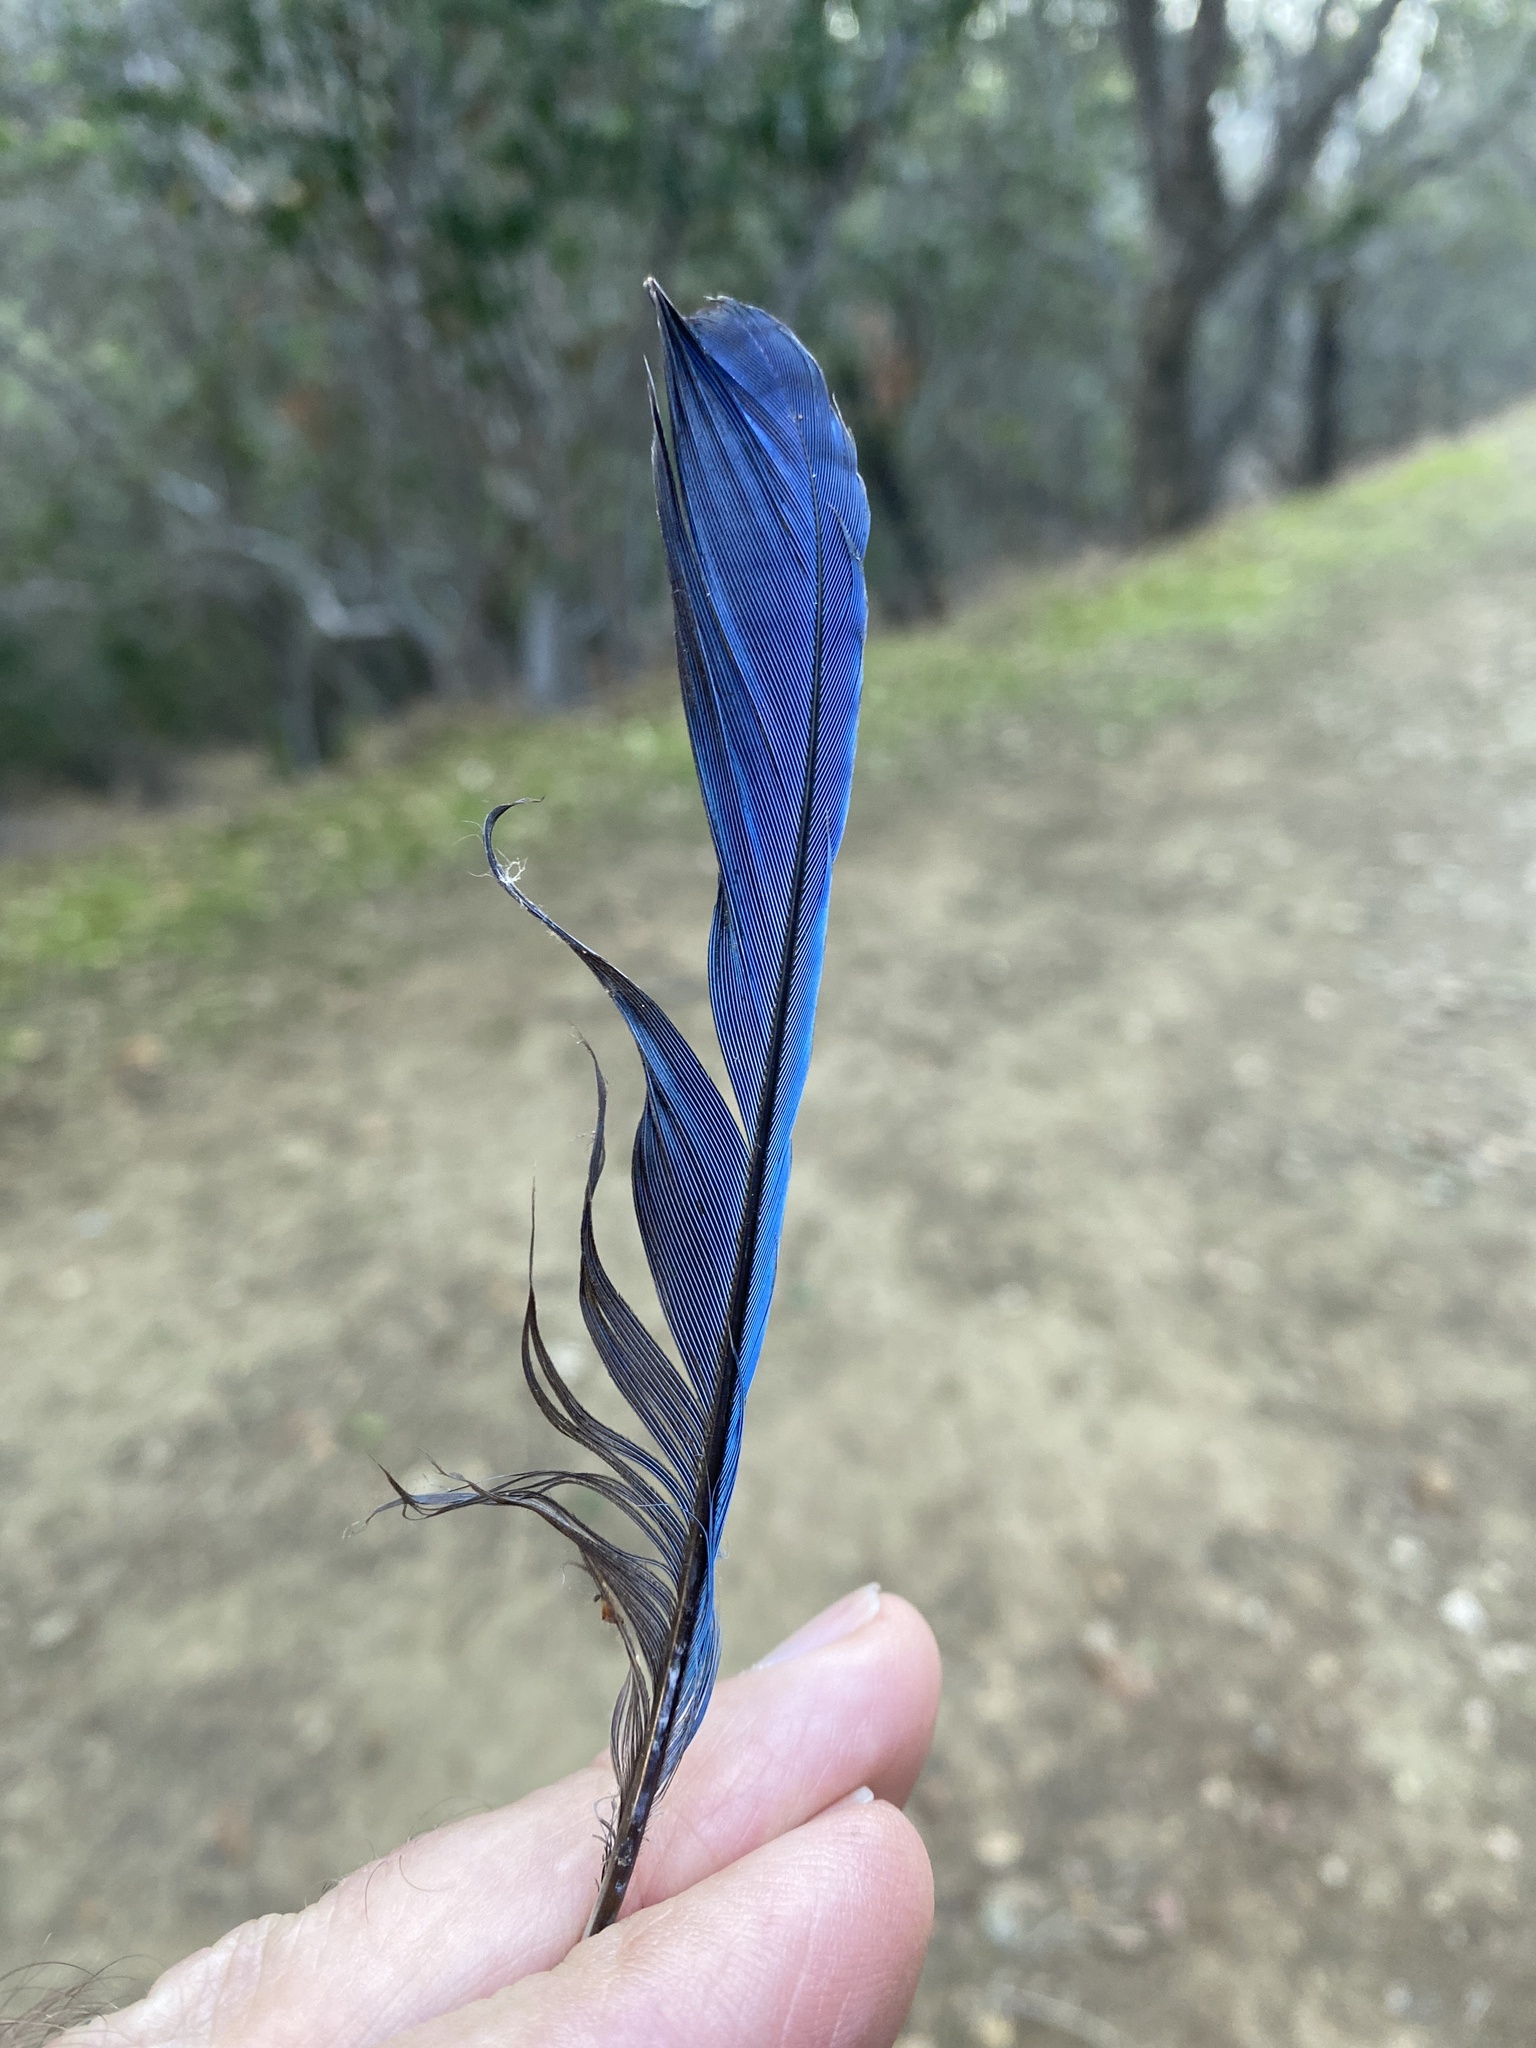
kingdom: Animalia
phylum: Chordata
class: Aves
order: Passeriformes
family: Corvidae
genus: Cyanocitta
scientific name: Cyanocitta stelleri
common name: Steller's jay
